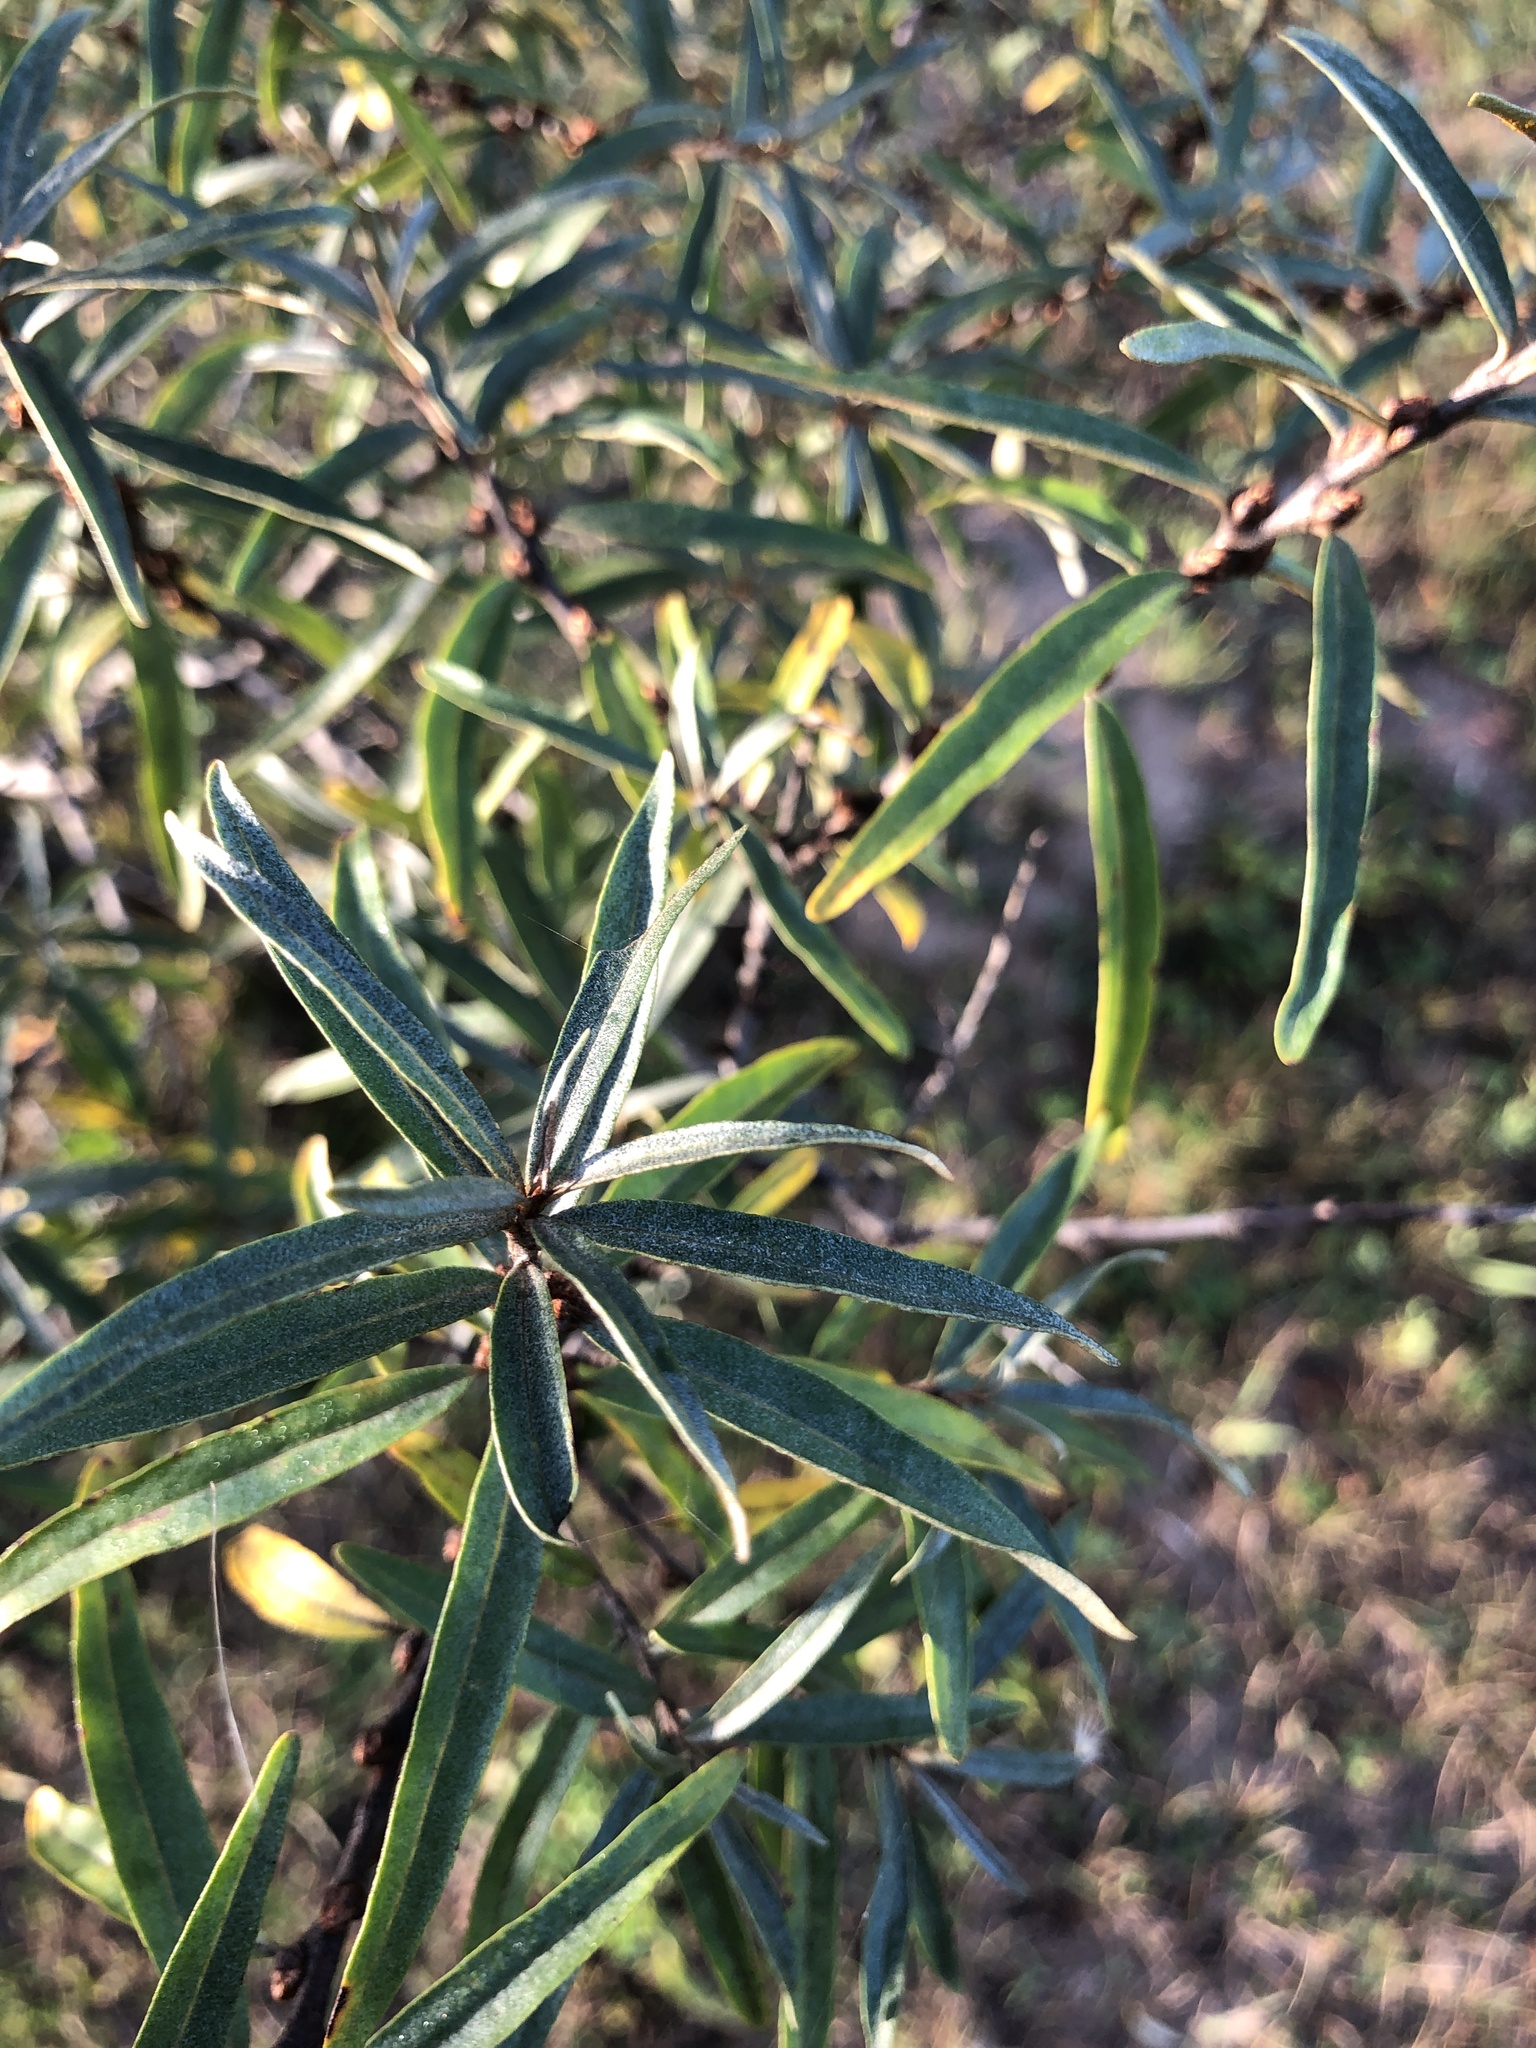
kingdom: Plantae
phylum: Tracheophyta
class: Magnoliopsida
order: Rosales
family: Elaeagnaceae
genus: Hippophae
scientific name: Hippophae rhamnoides
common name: Sea-buckthorn
